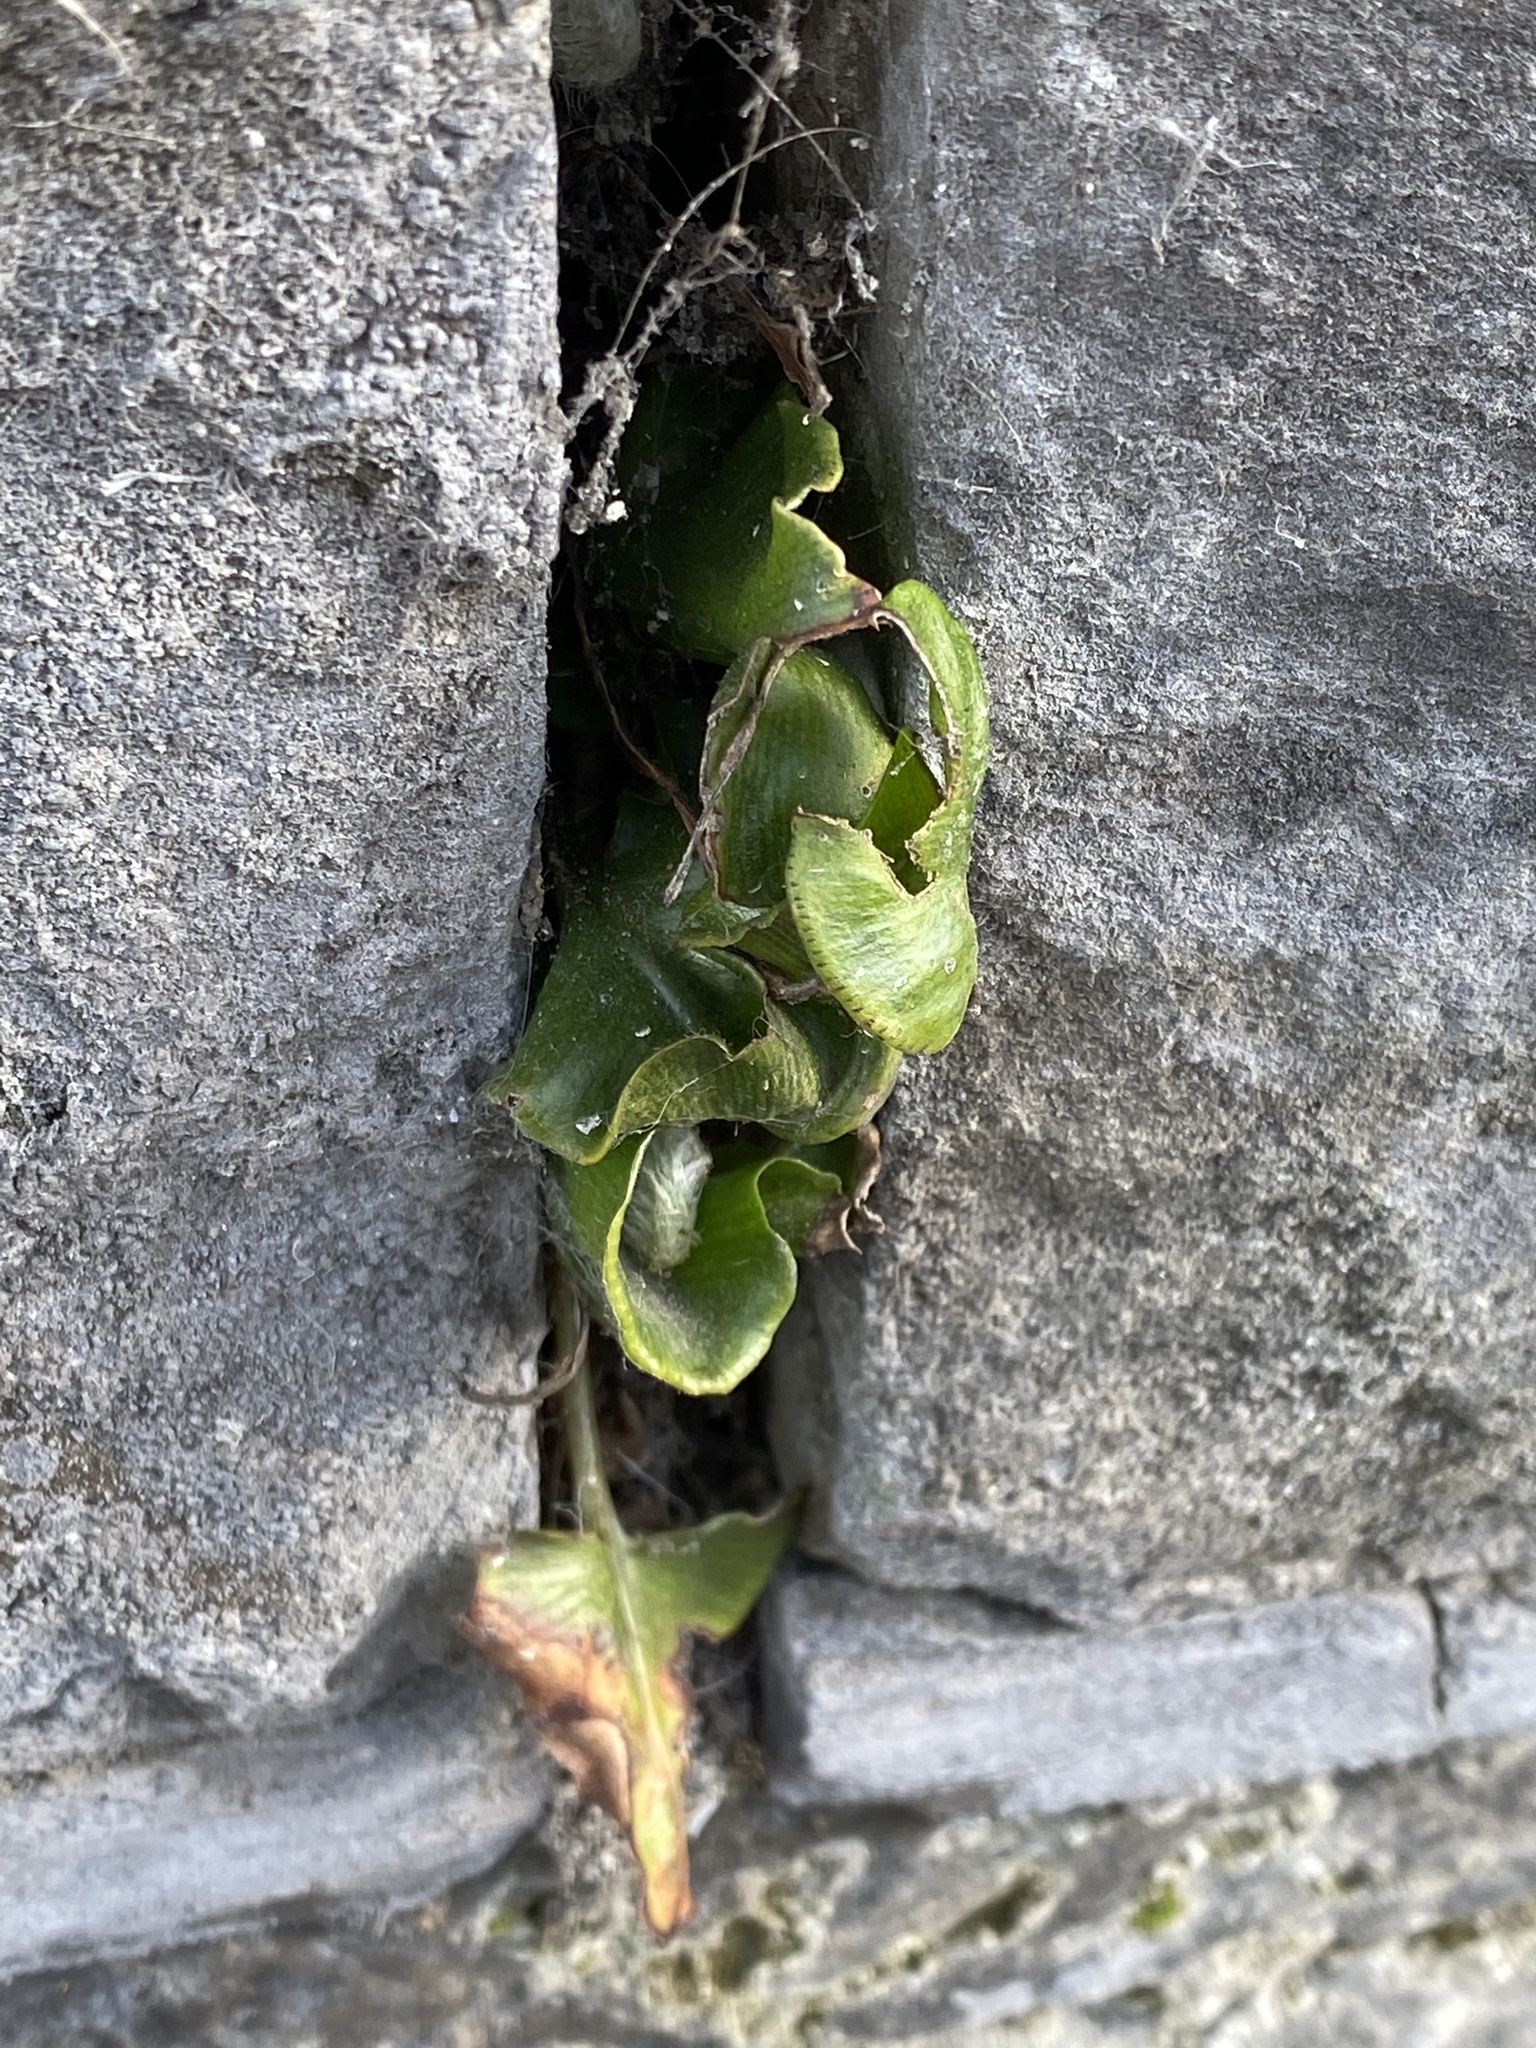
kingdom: Plantae
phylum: Tracheophyta
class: Polypodiopsida
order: Polypodiales
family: Aspleniaceae
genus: Asplenium
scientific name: Asplenium scolopendrium
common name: Hart's-tongue fern
